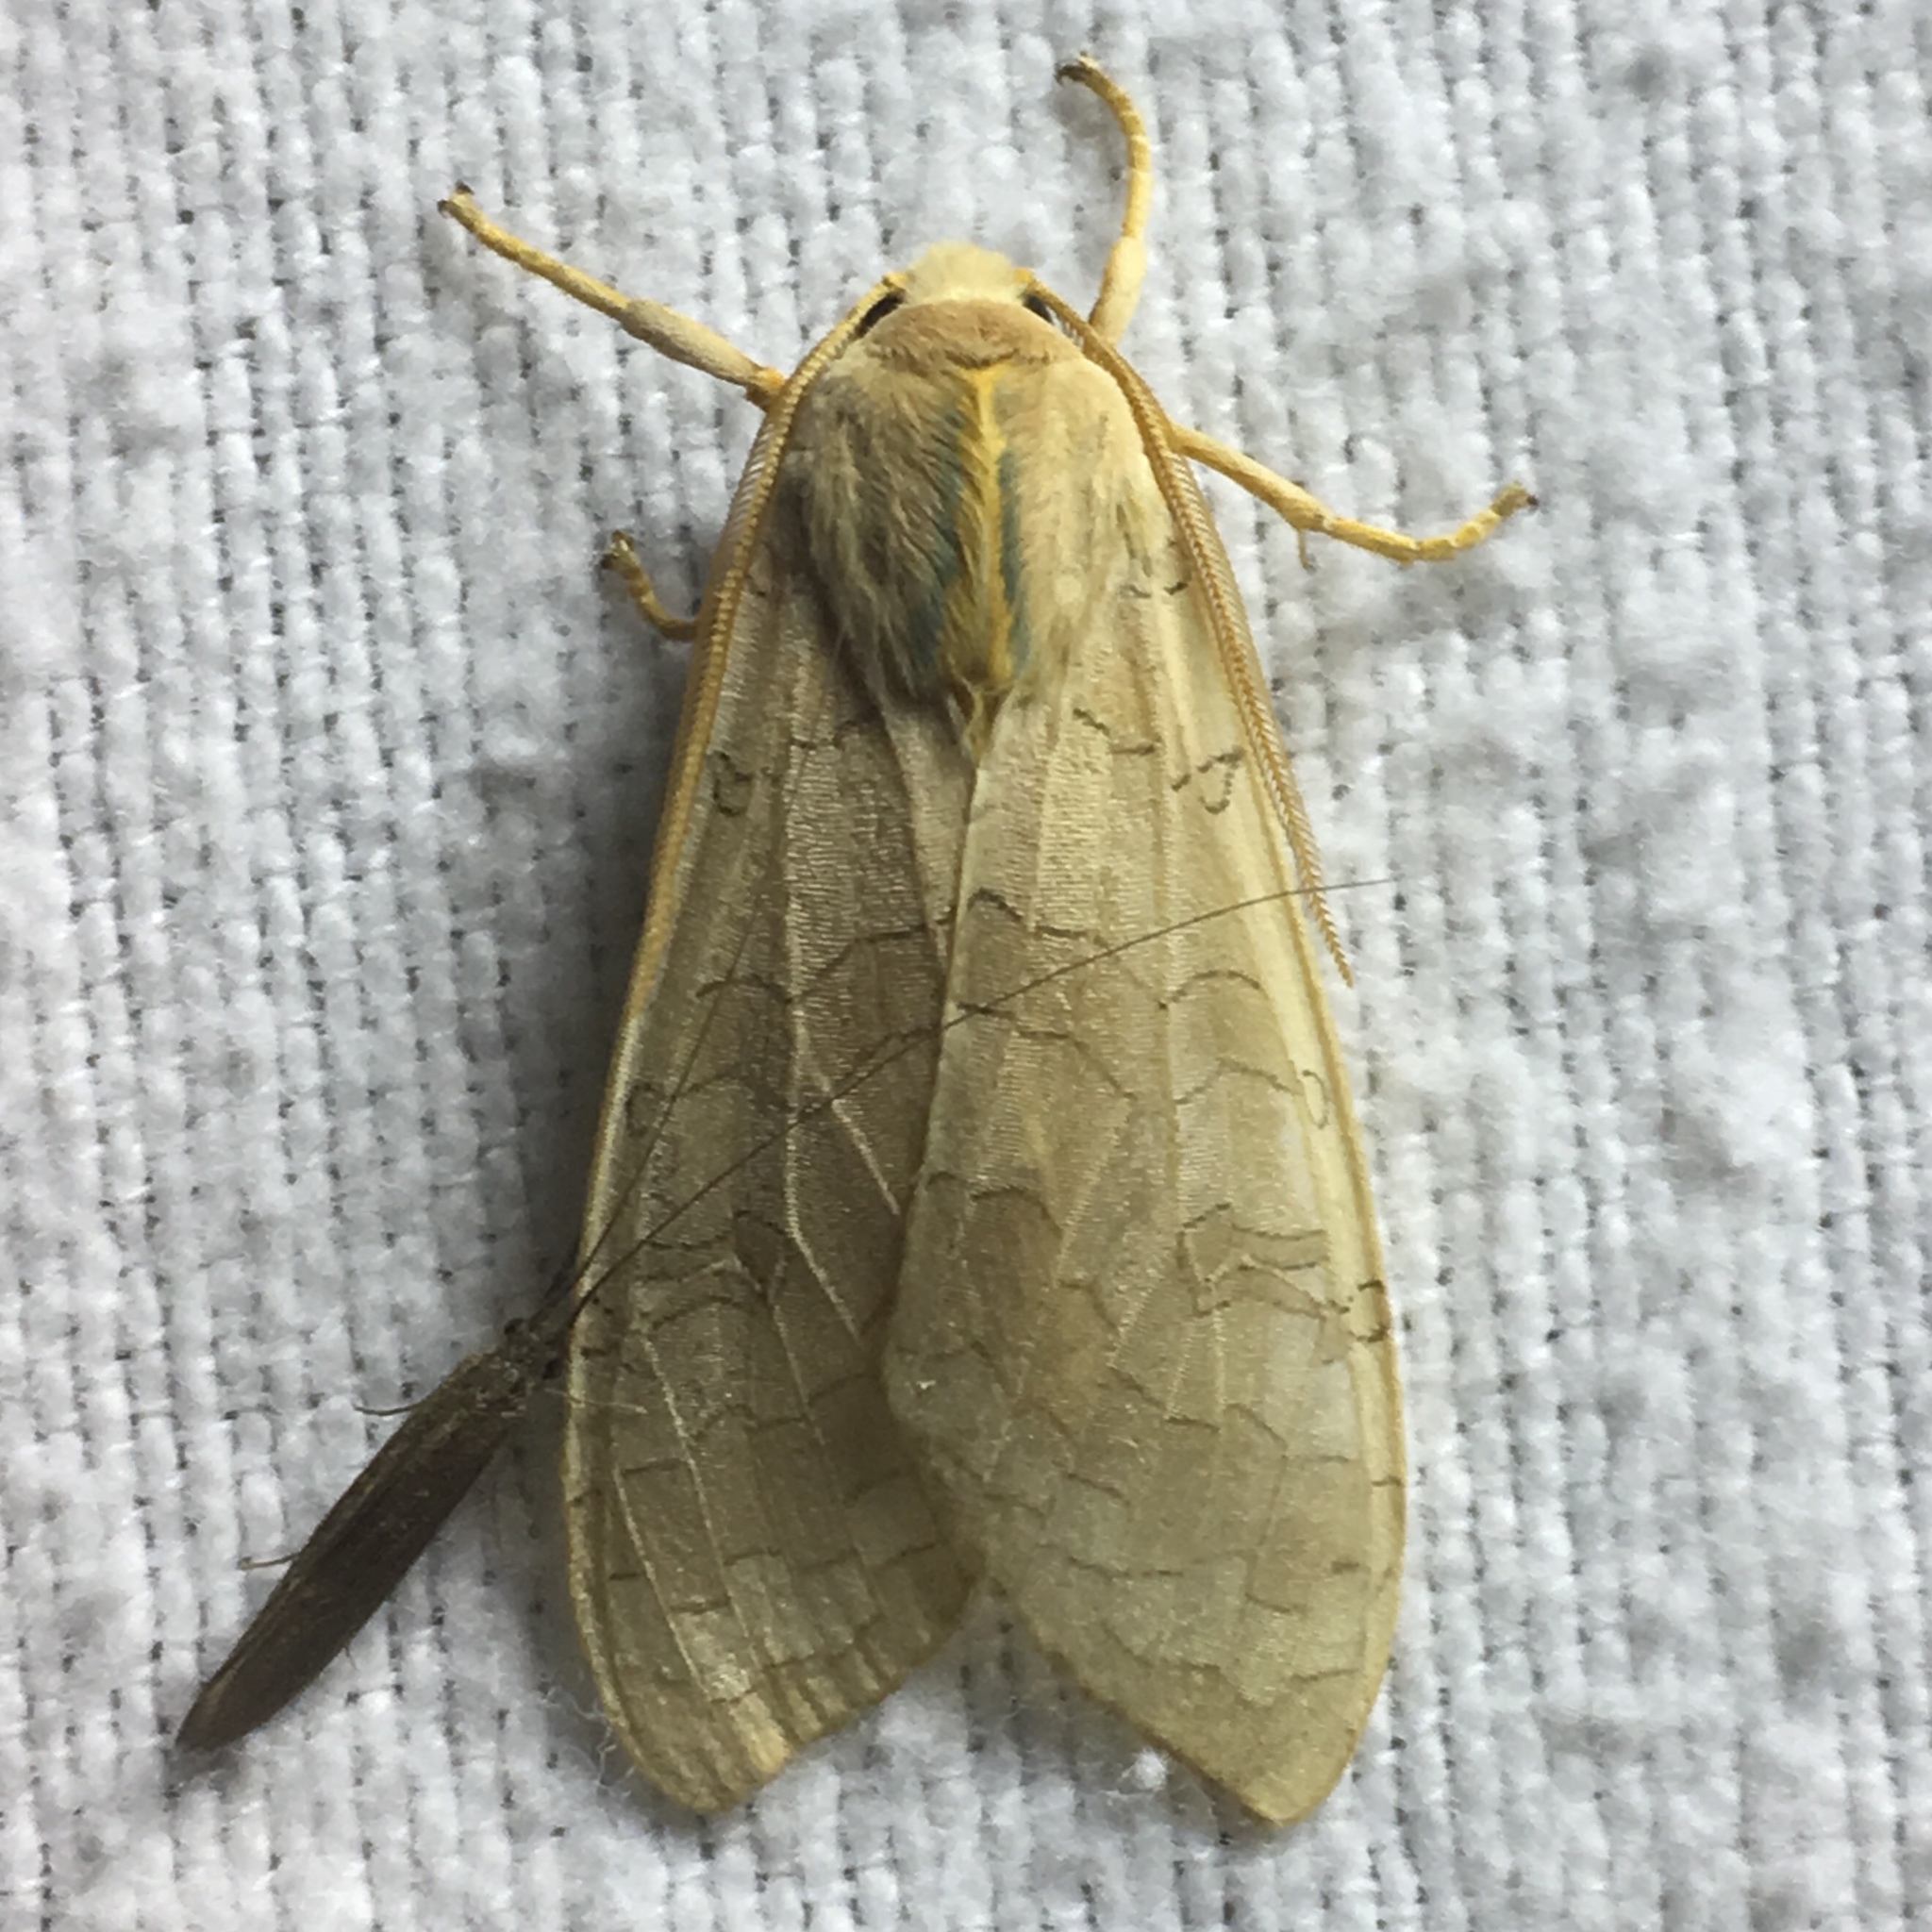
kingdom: Animalia
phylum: Arthropoda
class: Insecta
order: Lepidoptera
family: Erebidae
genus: Halysidota
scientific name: Halysidota tessellaris
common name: Banded tussock moth
